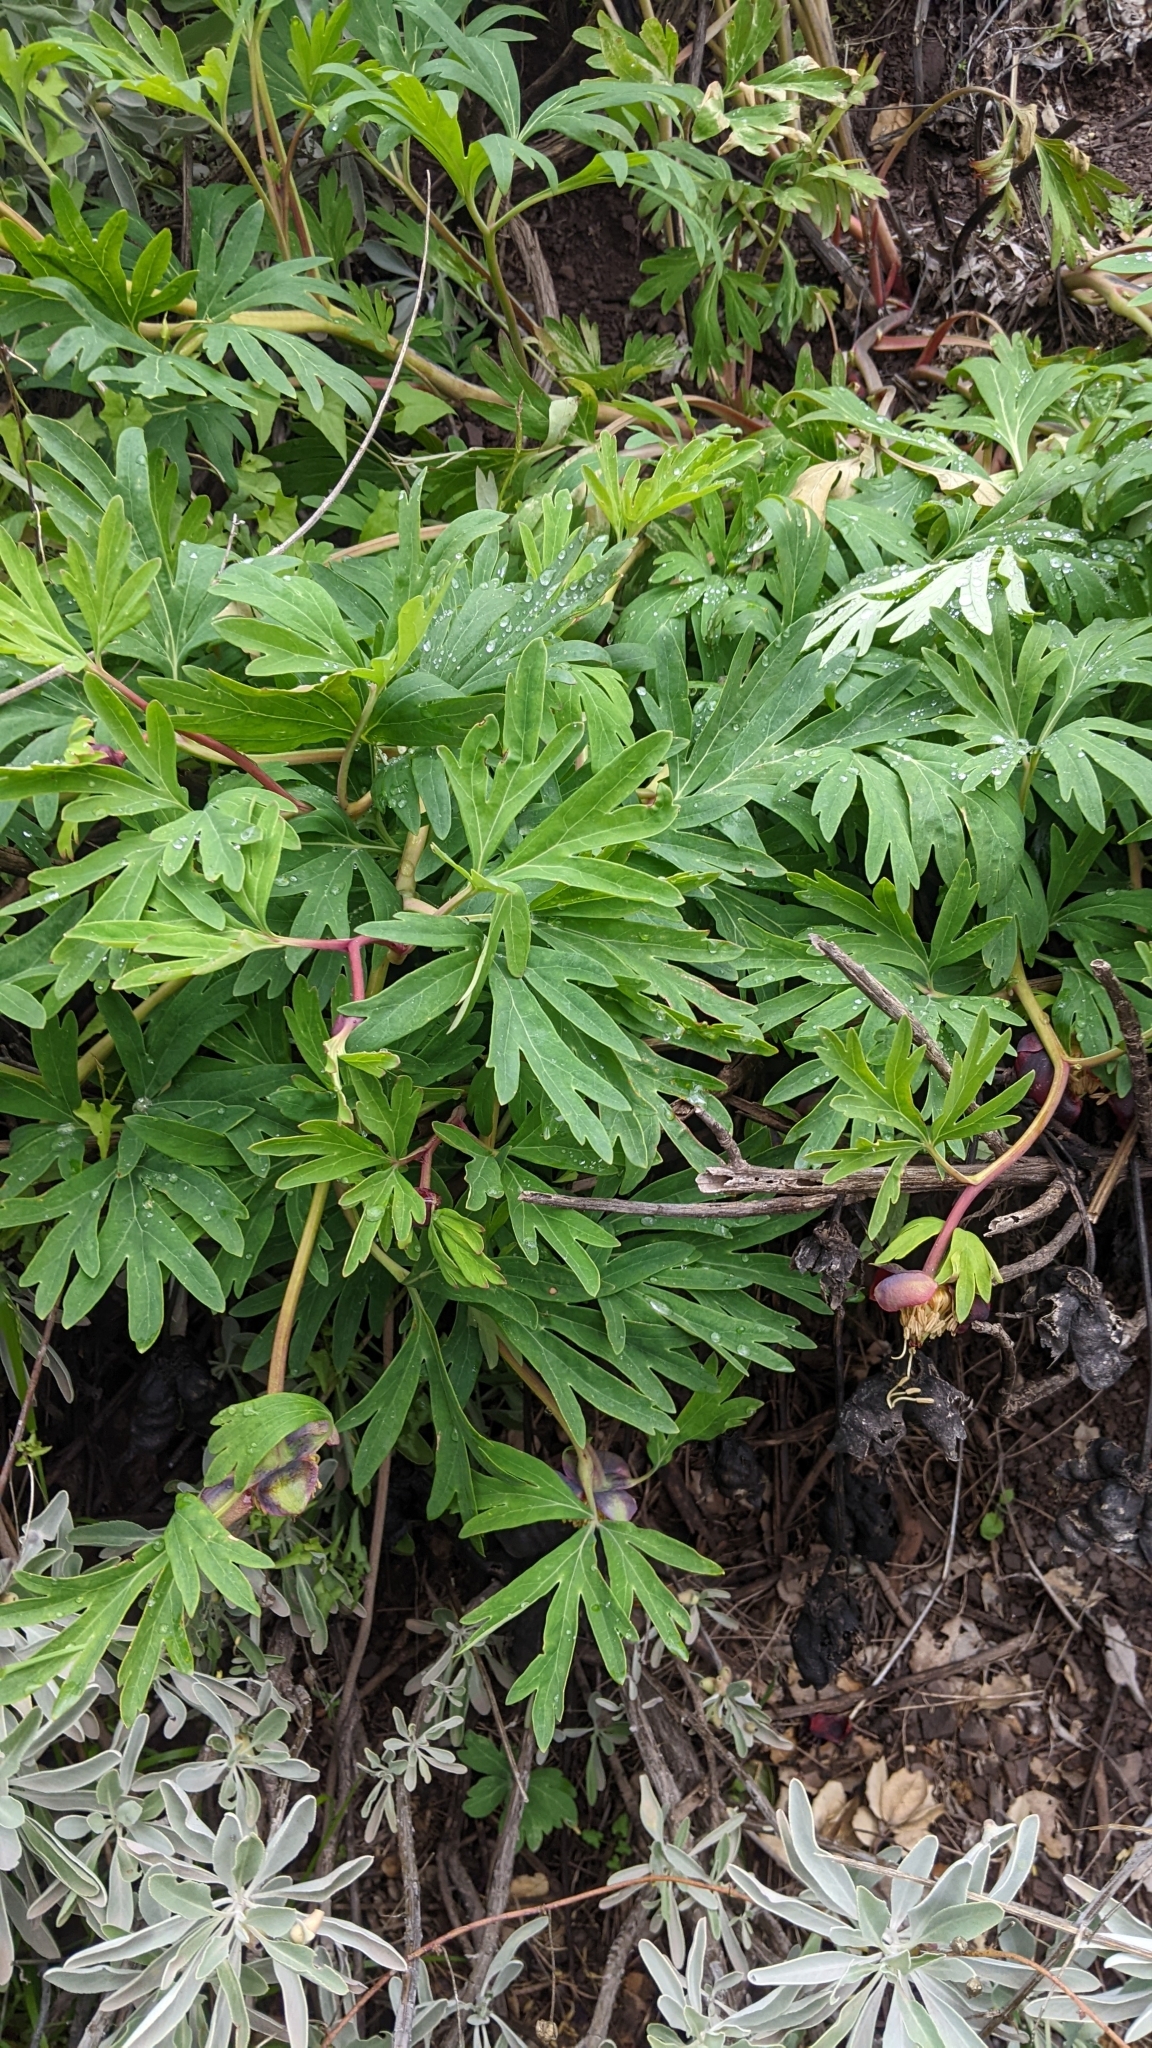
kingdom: Plantae
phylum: Tracheophyta
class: Magnoliopsida
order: Saxifragales
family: Paeoniaceae
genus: Paeonia
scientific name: Paeonia californica
